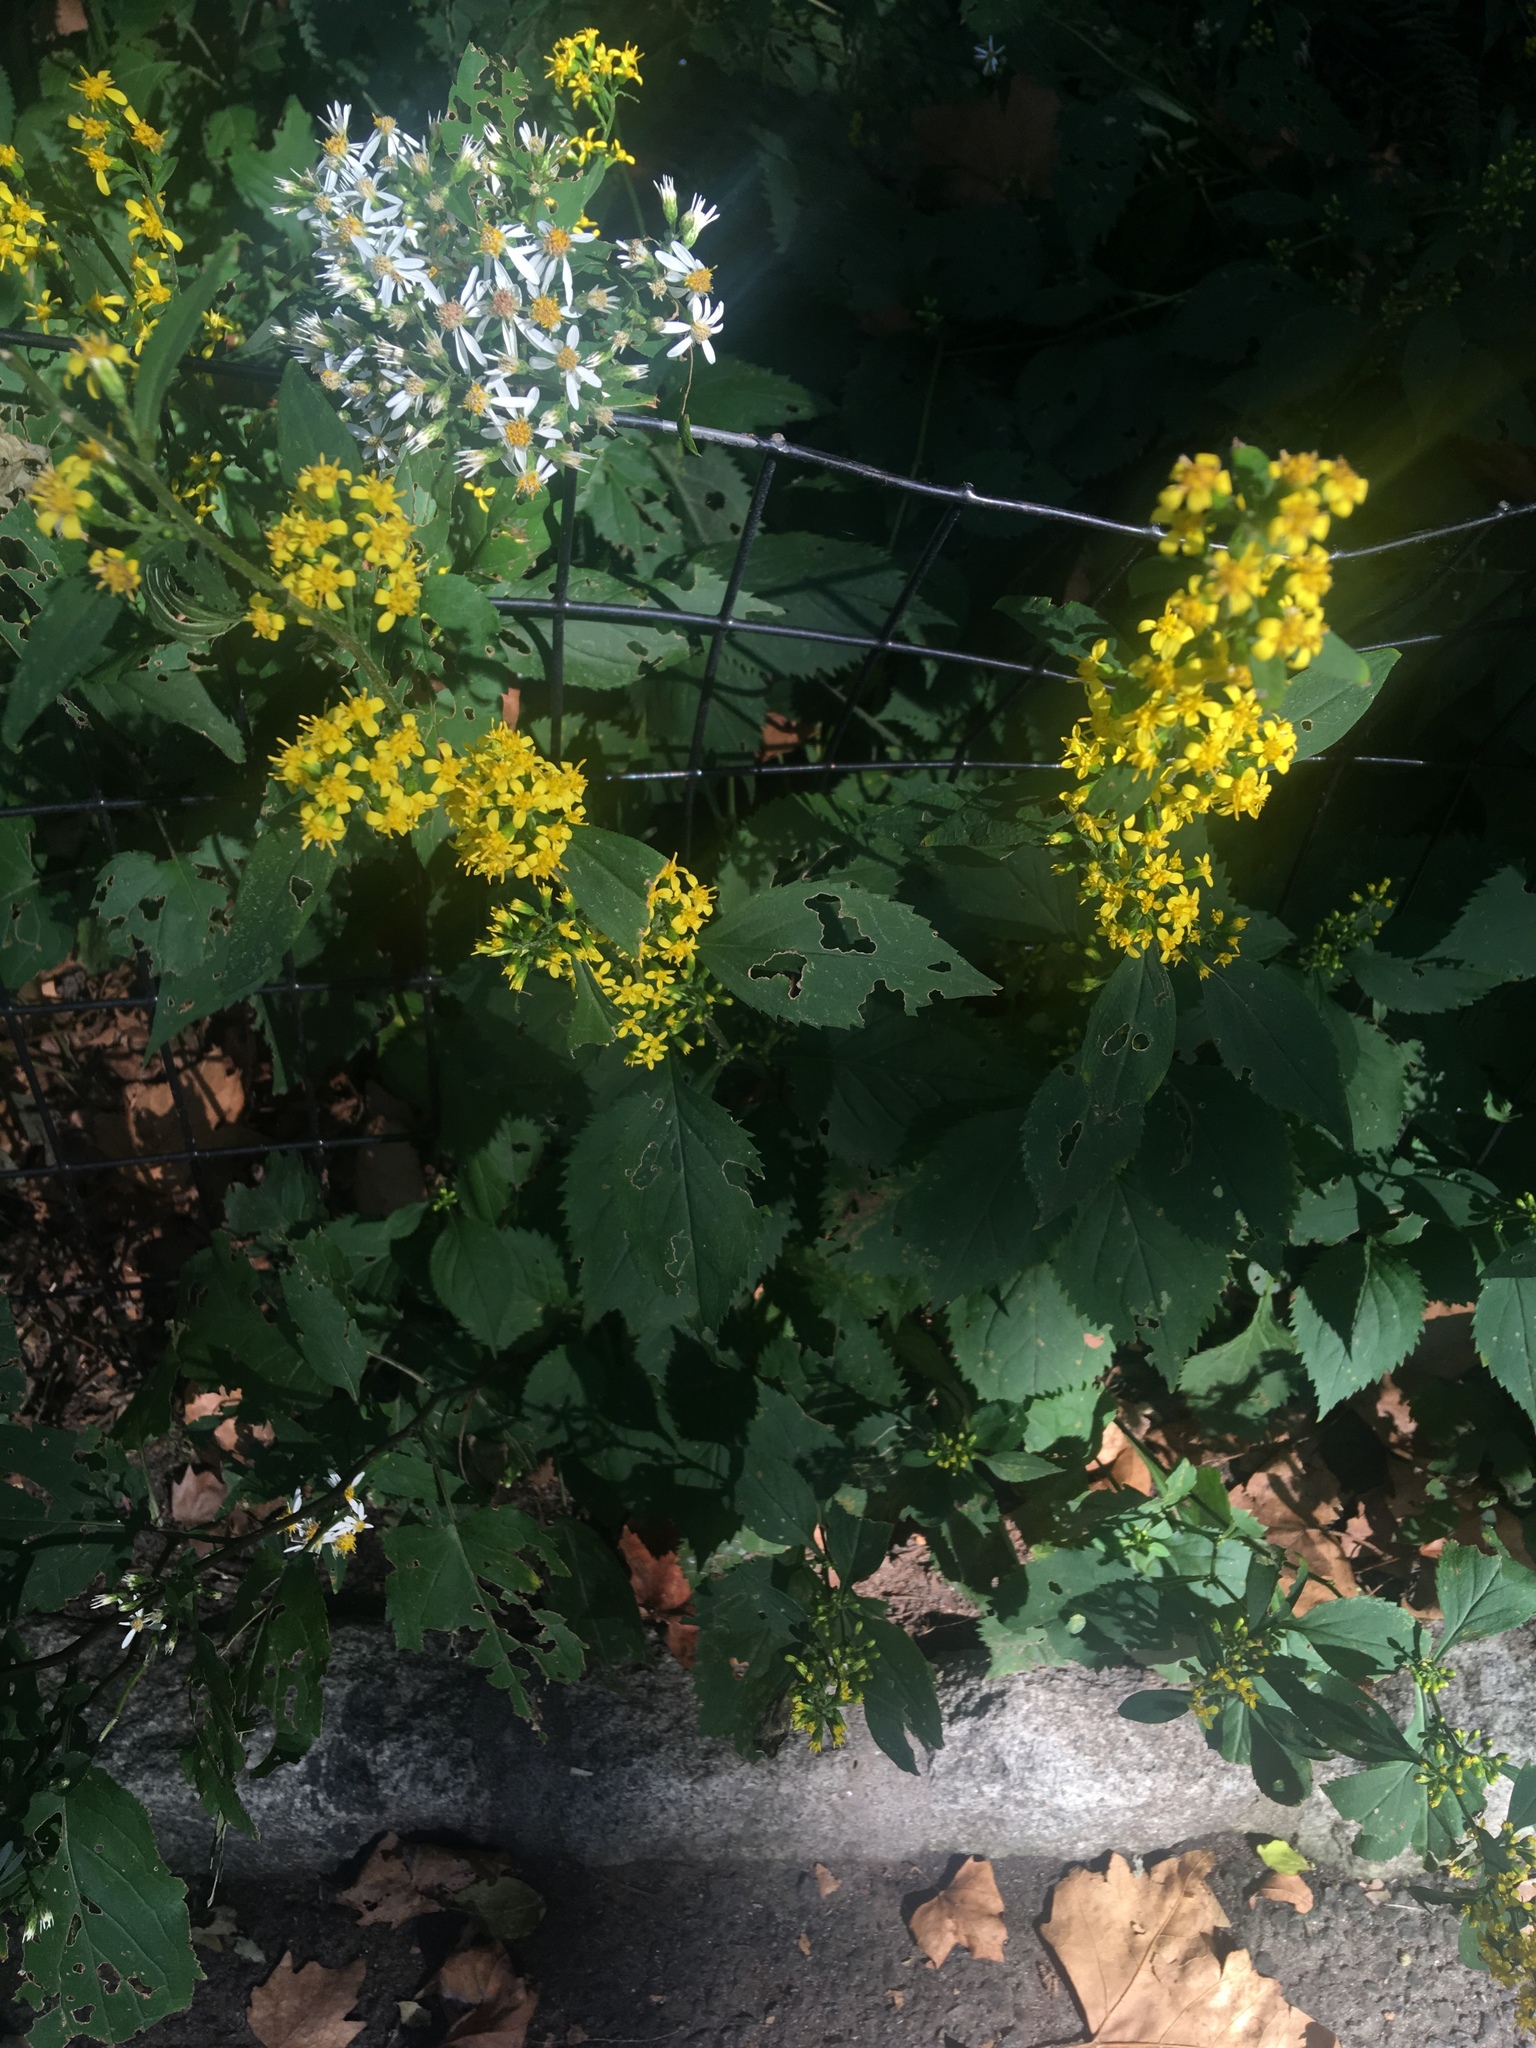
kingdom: Plantae
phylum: Tracheophyta
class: Magnoliopsida
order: Asterales
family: Asteraceae
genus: Solidago
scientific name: Solidago flexicaulis
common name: Zig-zag goldenrod
